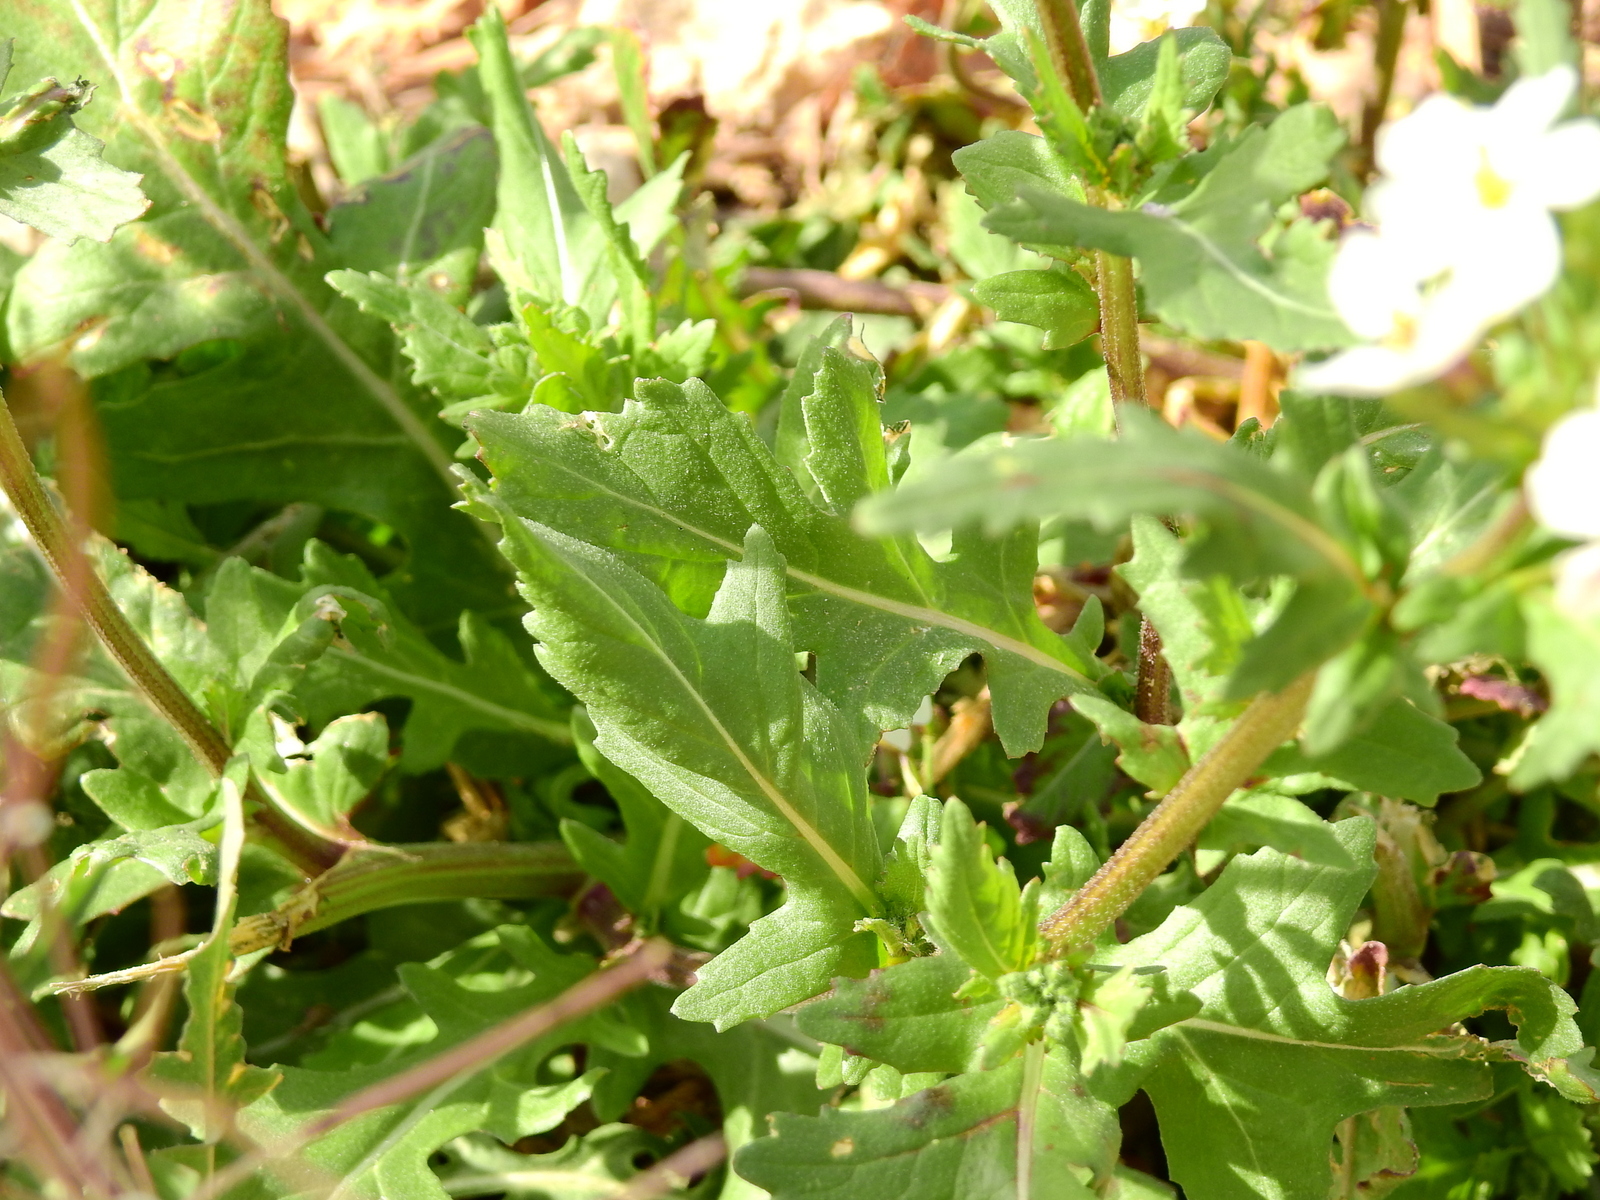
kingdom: Plantae
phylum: Tracheophyta
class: Magnoliopsida
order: Brassicales
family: Brassicaceae
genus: Diplotaxis
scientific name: Diplotaxis erucoides
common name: White rocket
